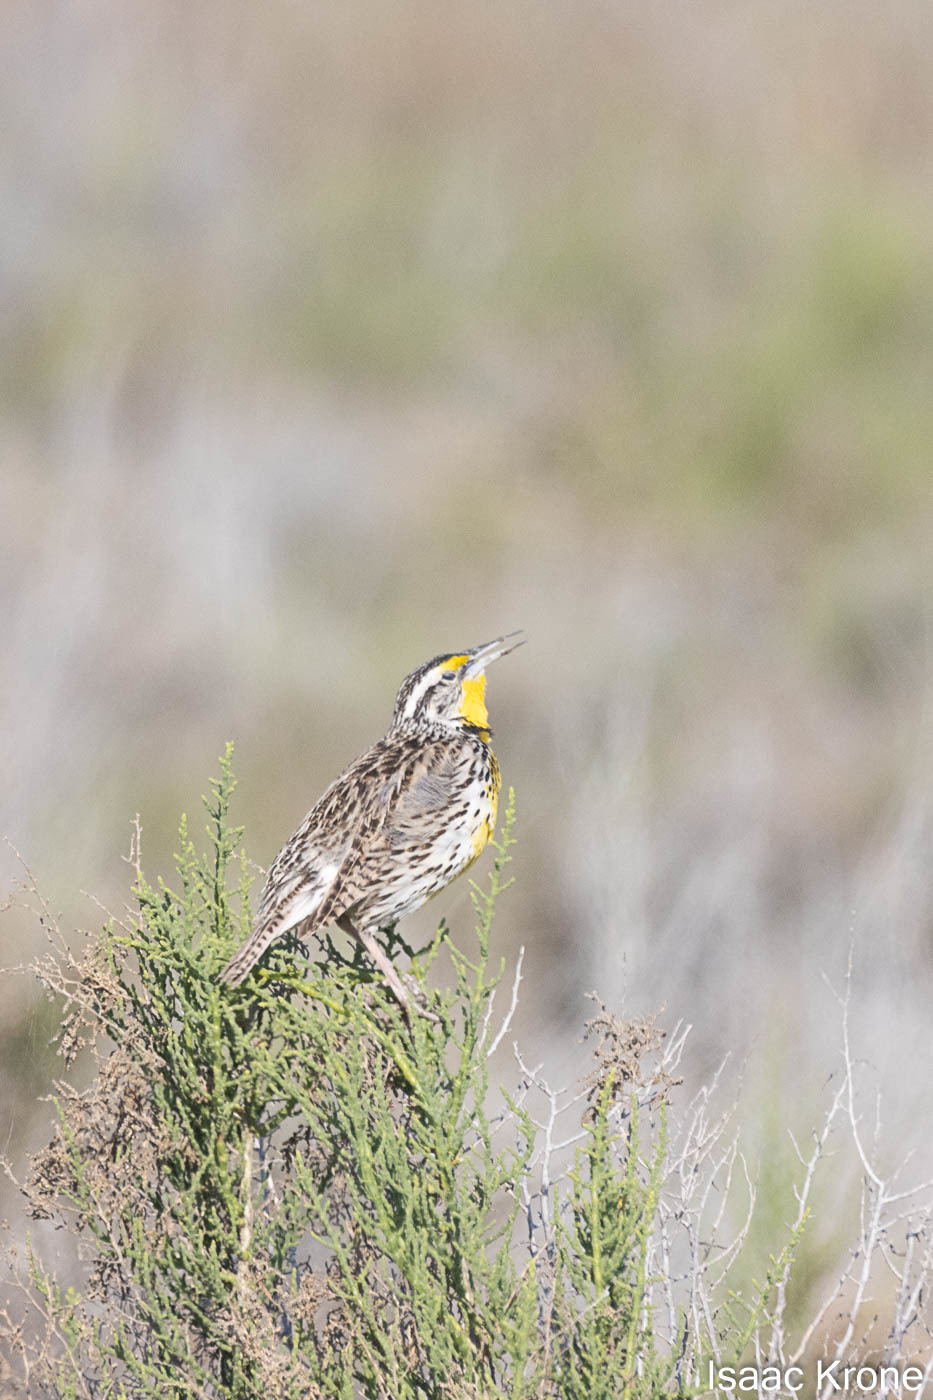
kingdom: Animalia
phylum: Chordata
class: Aves
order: Passeriformes
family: Icteridae
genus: Sturnella
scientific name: Sturnella neglecta
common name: Western meadowlark
